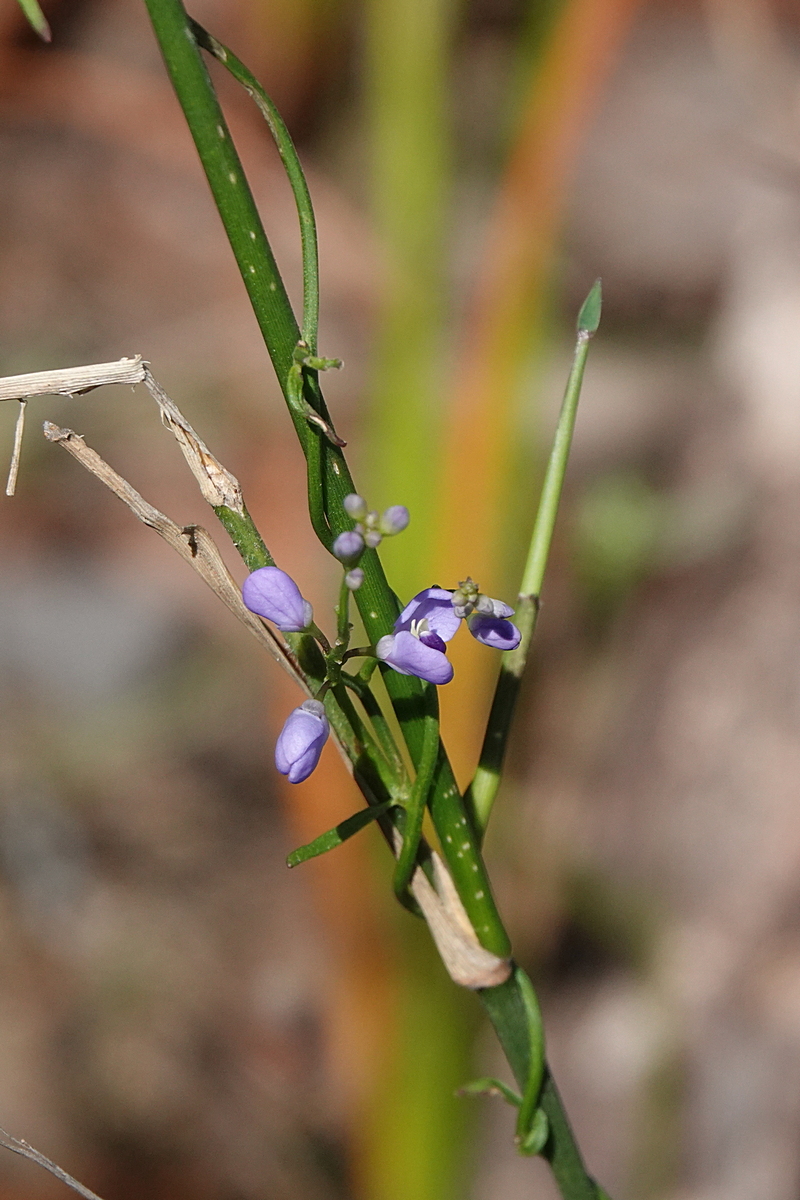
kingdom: Plantae
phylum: Tracheophyta
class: Magnoliopsida
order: Fabales
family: Polygalaceae
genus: Comesperma
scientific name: Comesperma volubile
